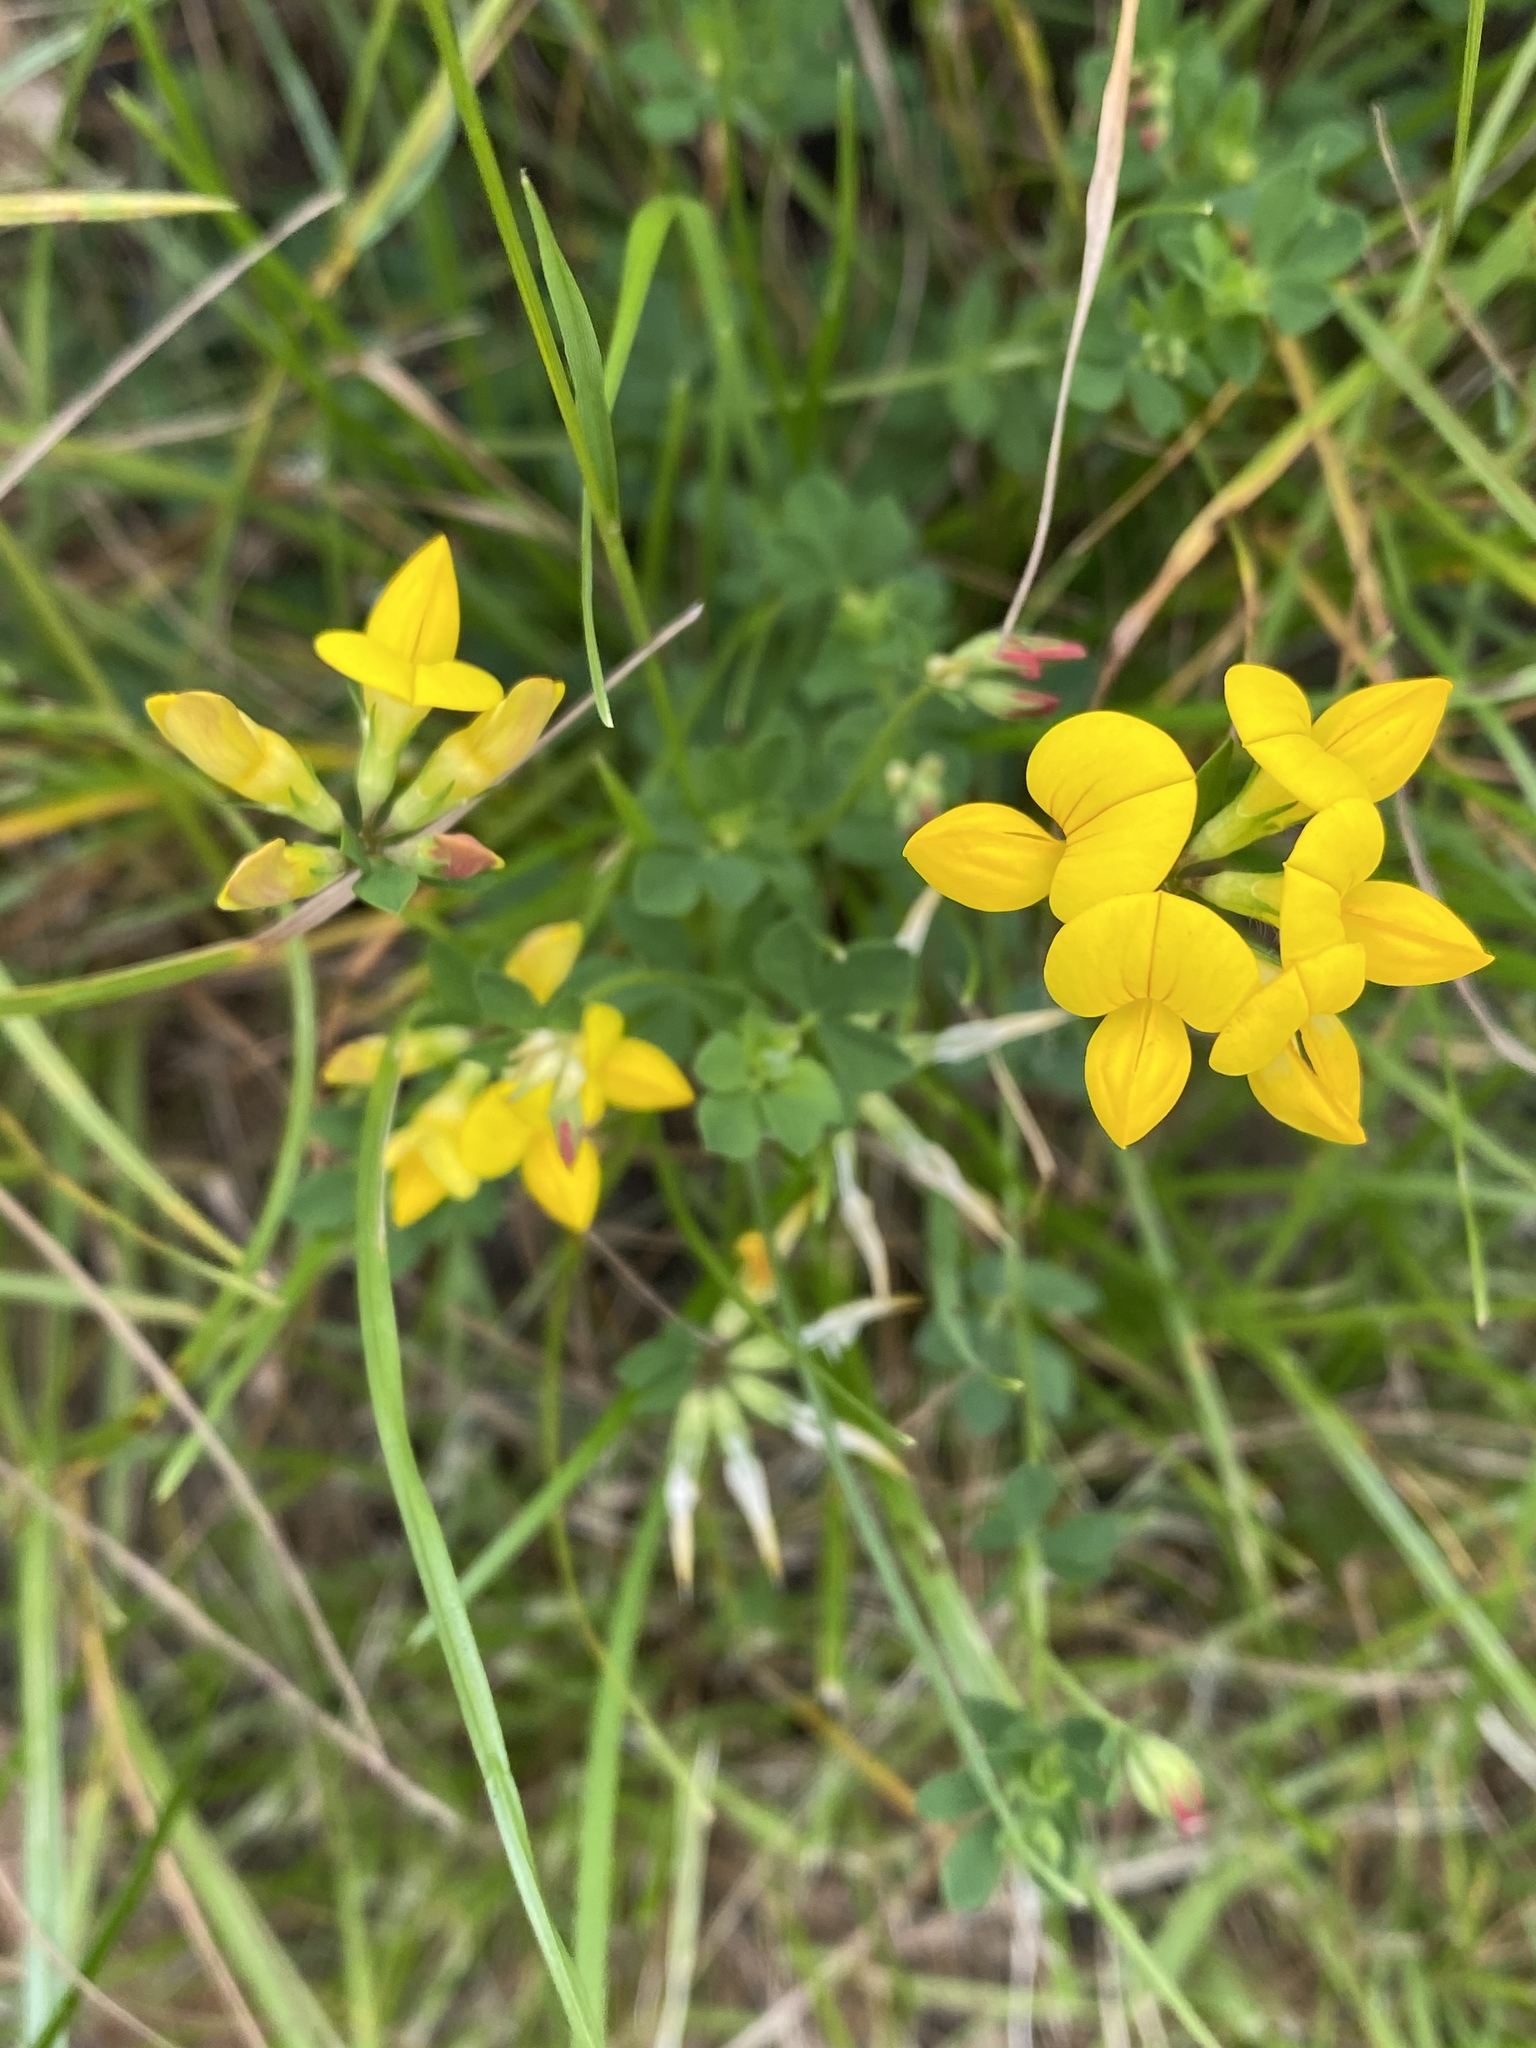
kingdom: Plantae
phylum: Tracheophyta
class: Magnoliopsida
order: Fabales
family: Fabaceae
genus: Lotus
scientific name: Lotus corniculatus
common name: Common bird's-foot-trefoil
